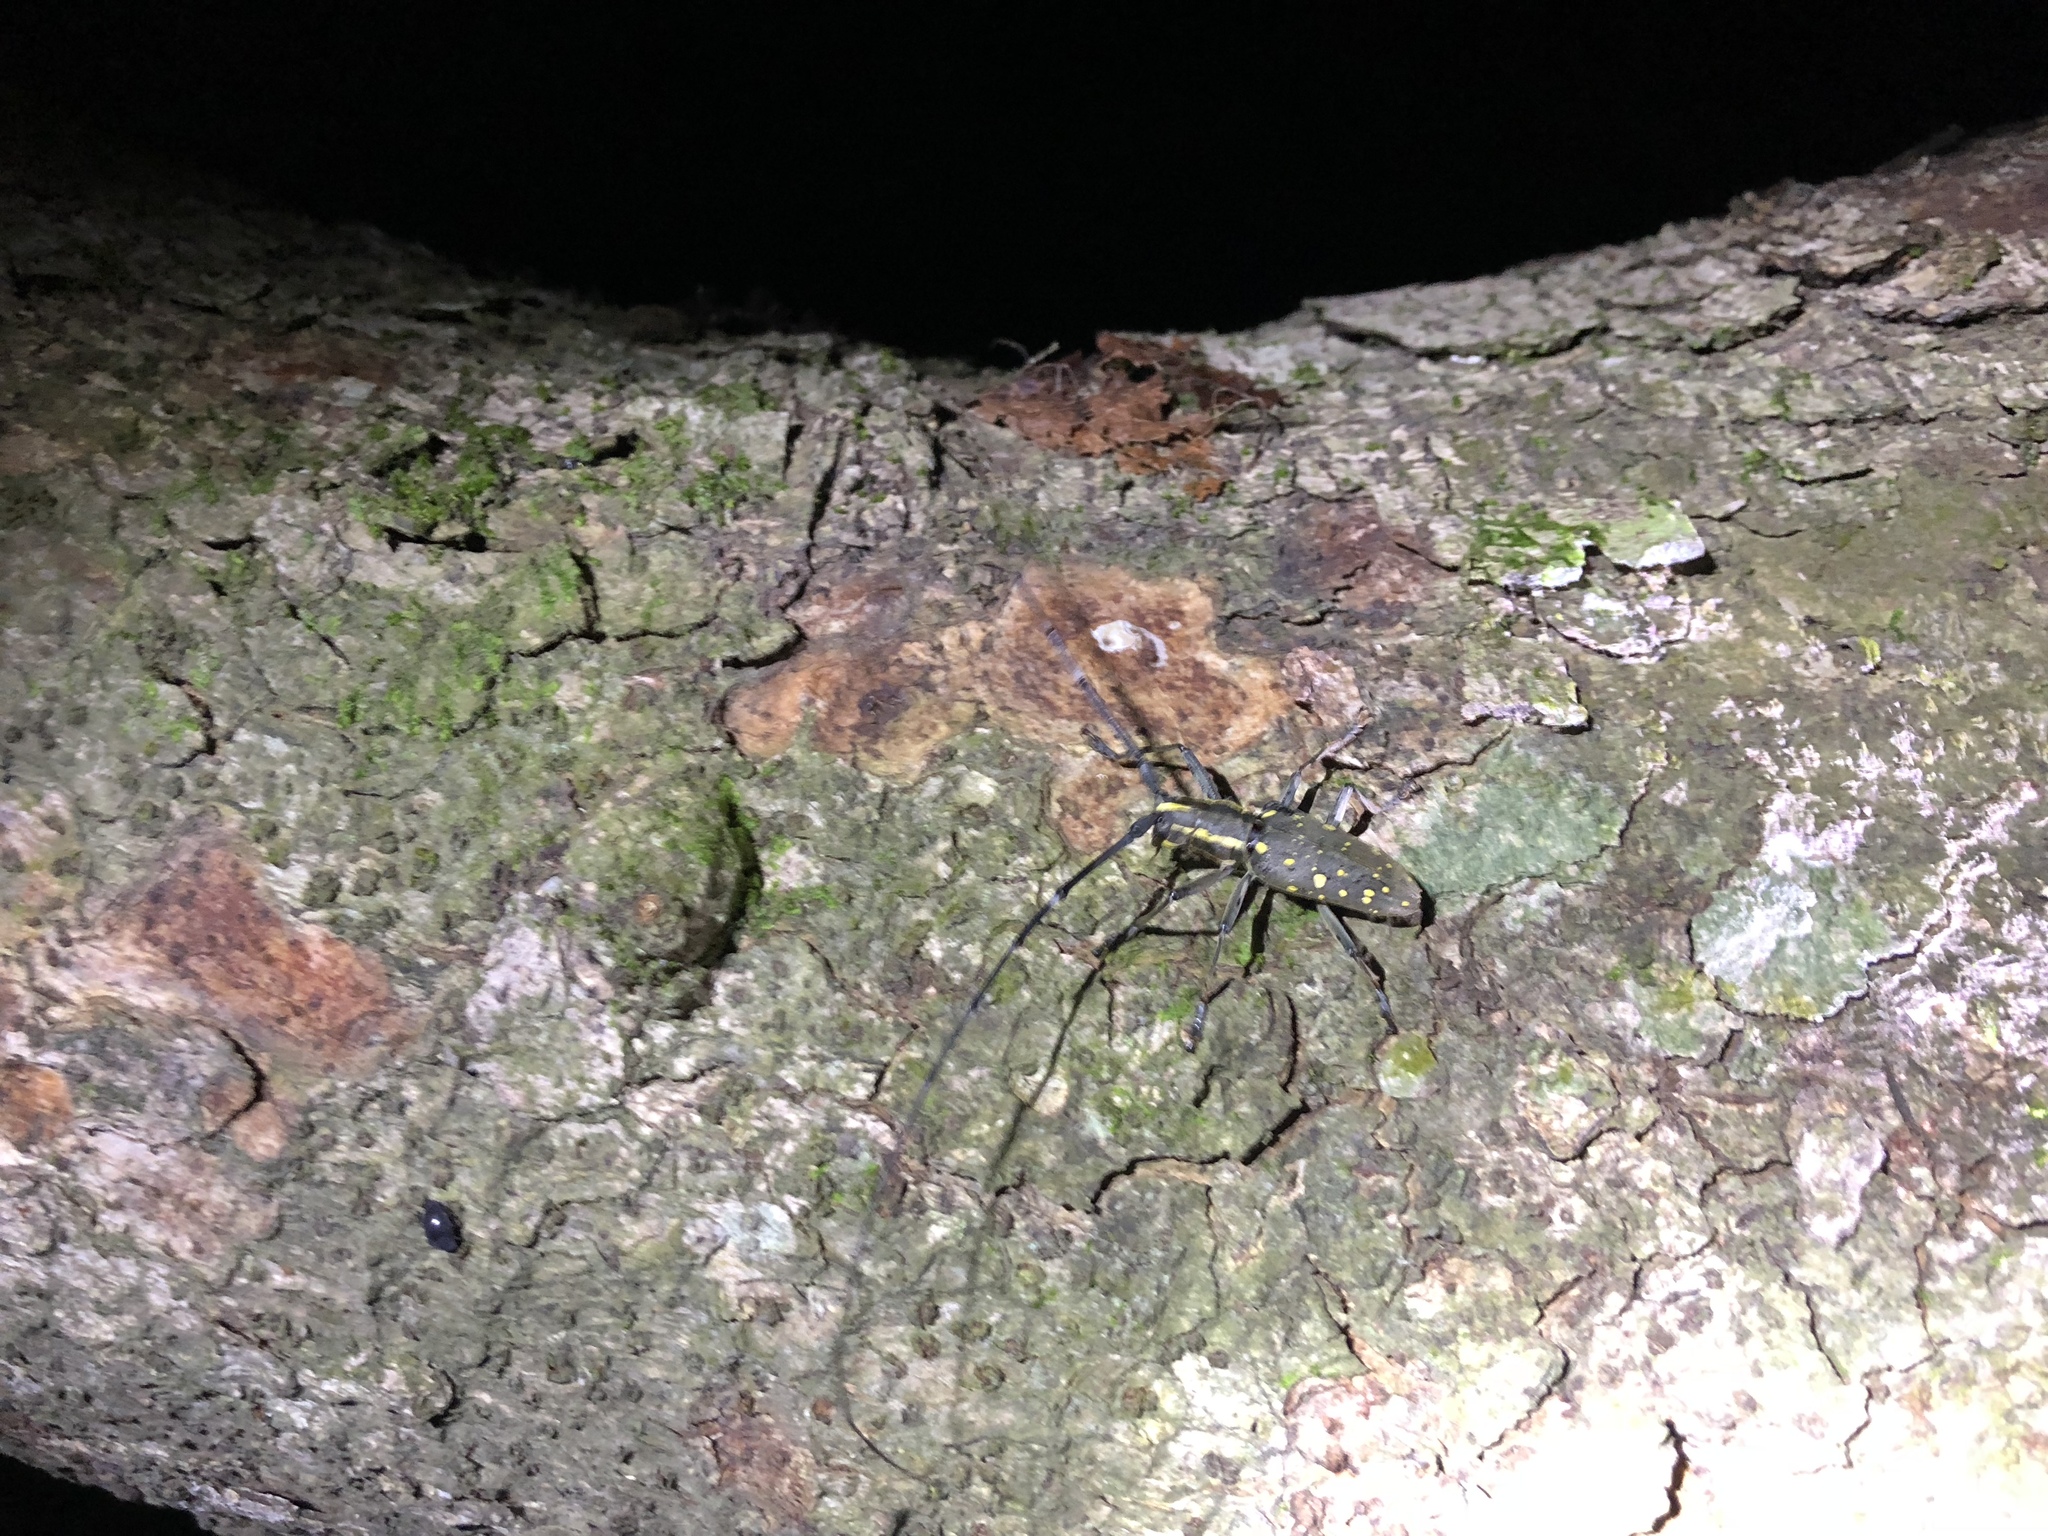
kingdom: Animalia
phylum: Arthropoda
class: Insecta
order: Coleoptera
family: Cerambycidae
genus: Psacothea
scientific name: Psacothea hilaris
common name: Yellow-spotted longicorn beetle
